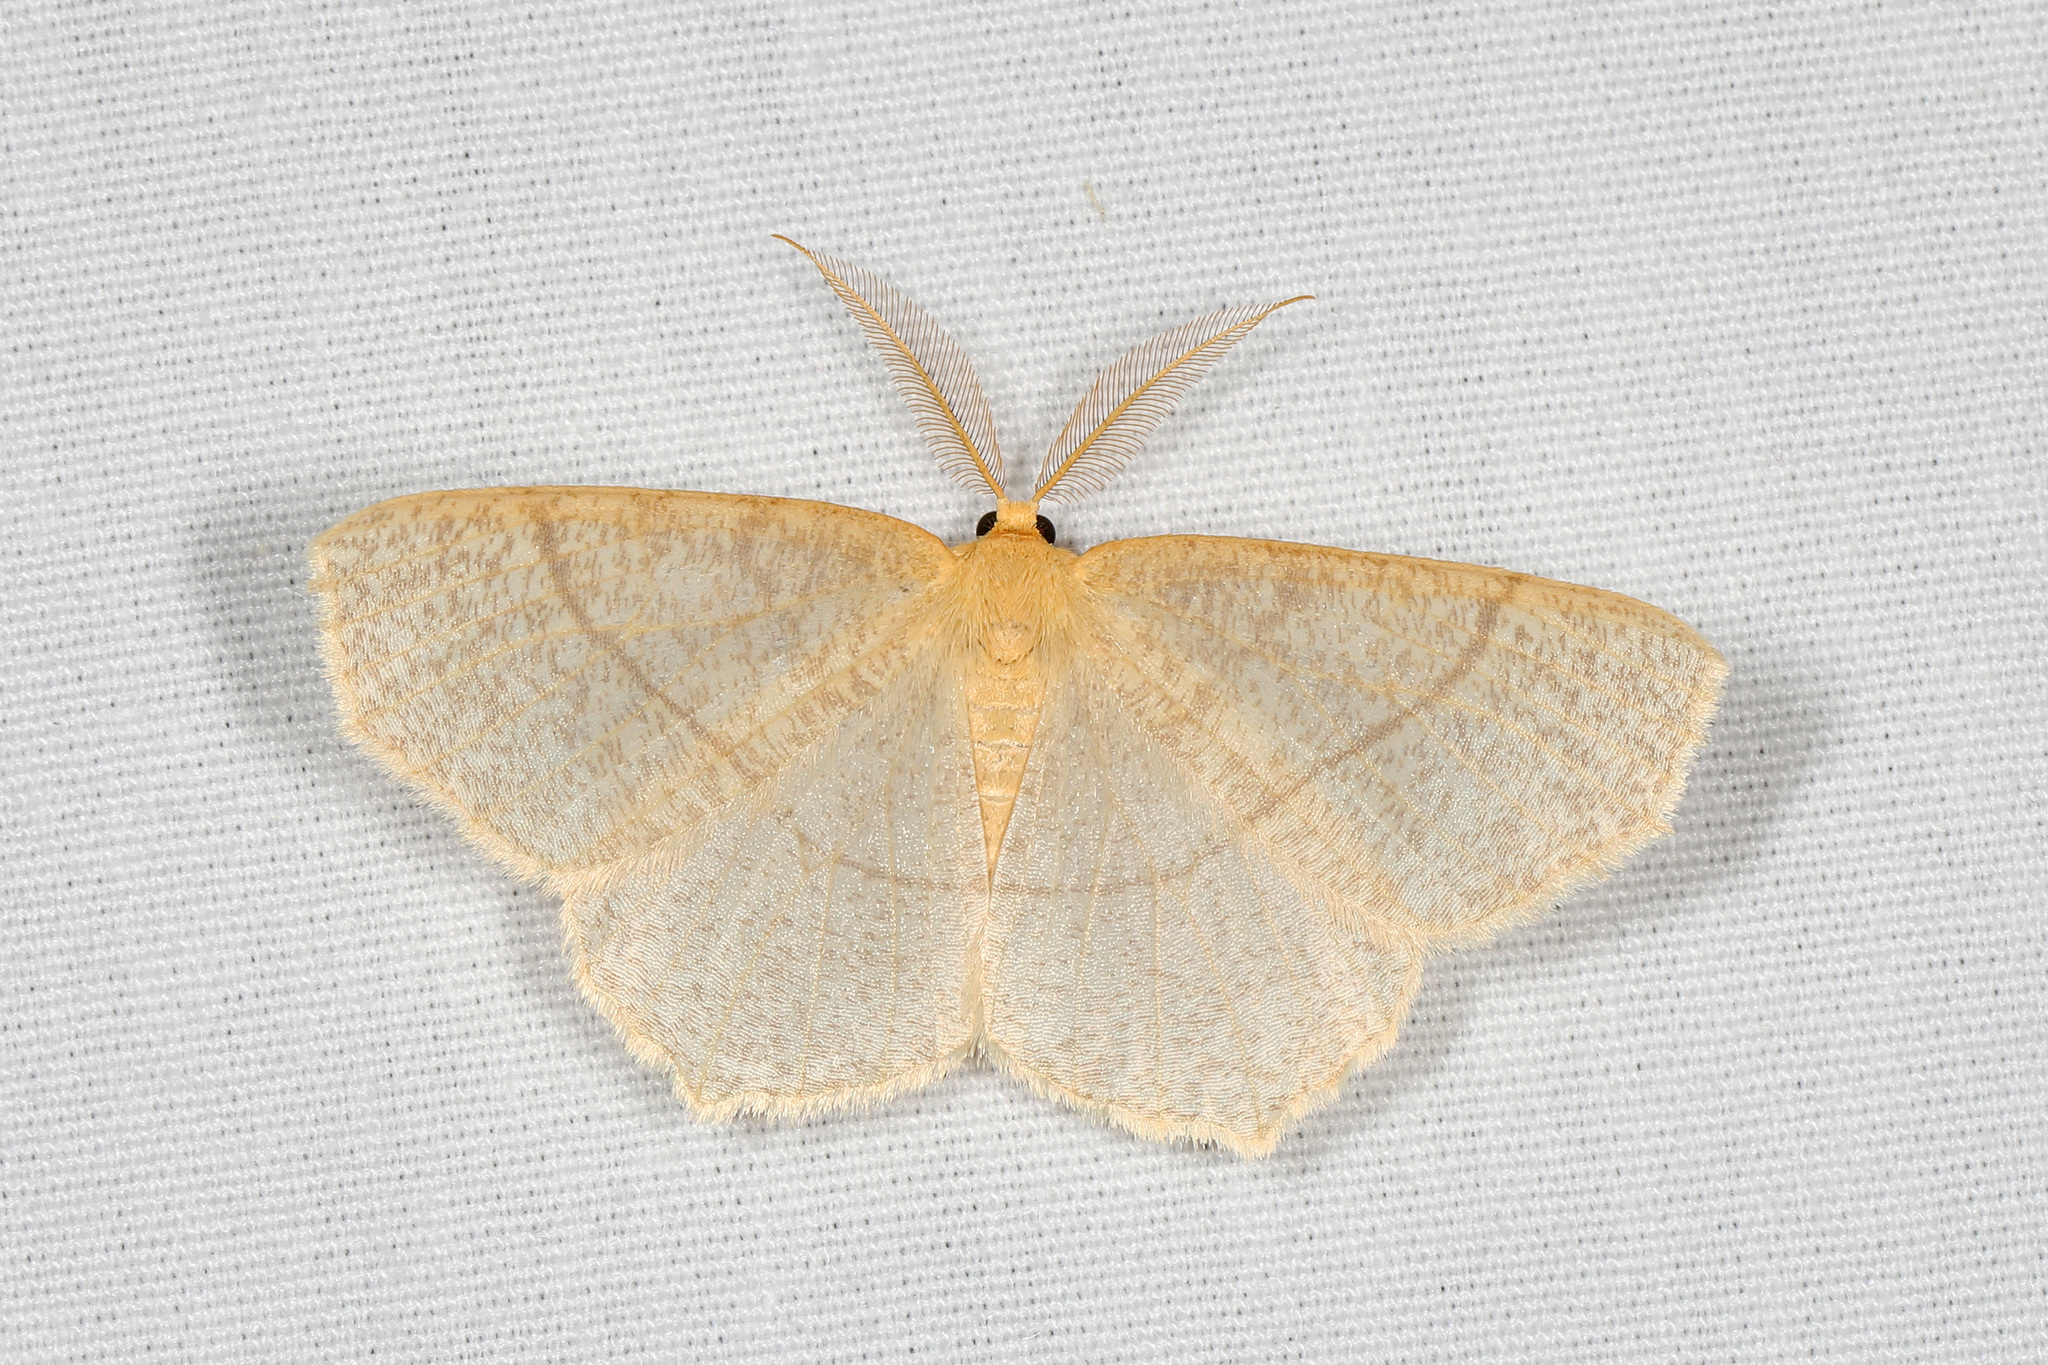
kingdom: Animalia
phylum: Arthropoda
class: Insecta
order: Lepidoptera
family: Geometridae
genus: Besma
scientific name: Besma endropiaria
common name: Straw besma
